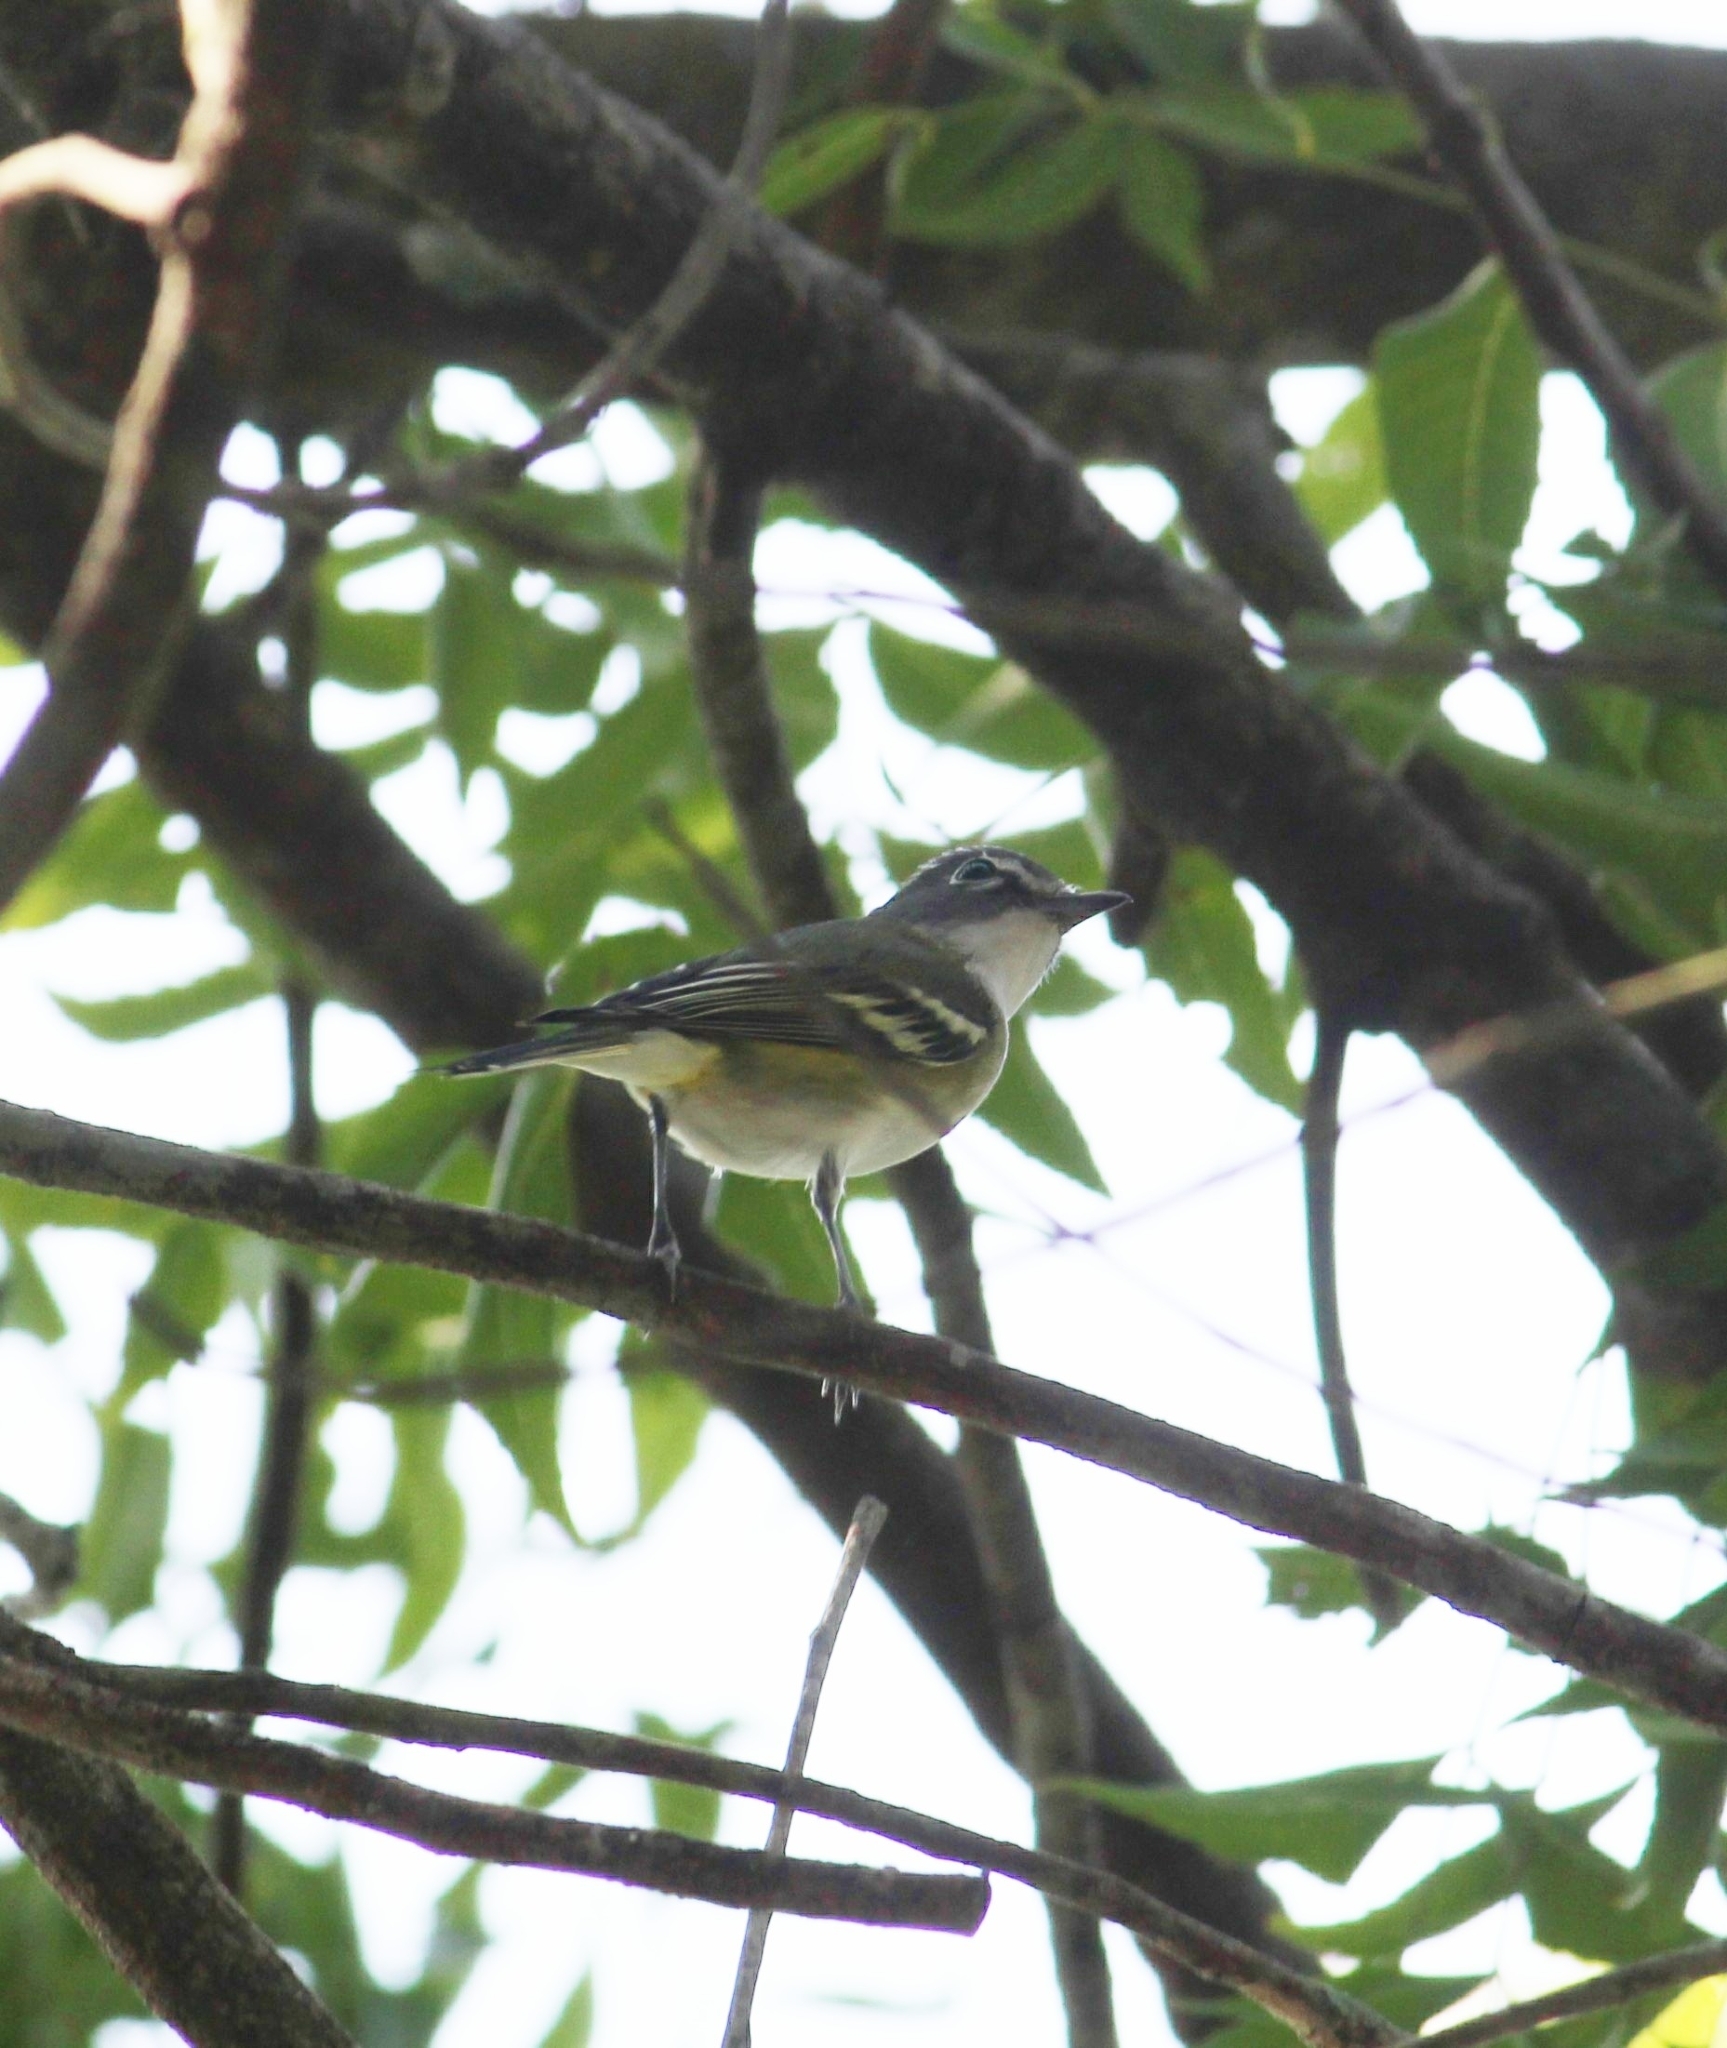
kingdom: Animalia
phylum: Chordata
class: Aves
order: Passeriformes
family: Vireonidae
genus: Vireo
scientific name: Vireo solitarius
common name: Blue-headed vireo
